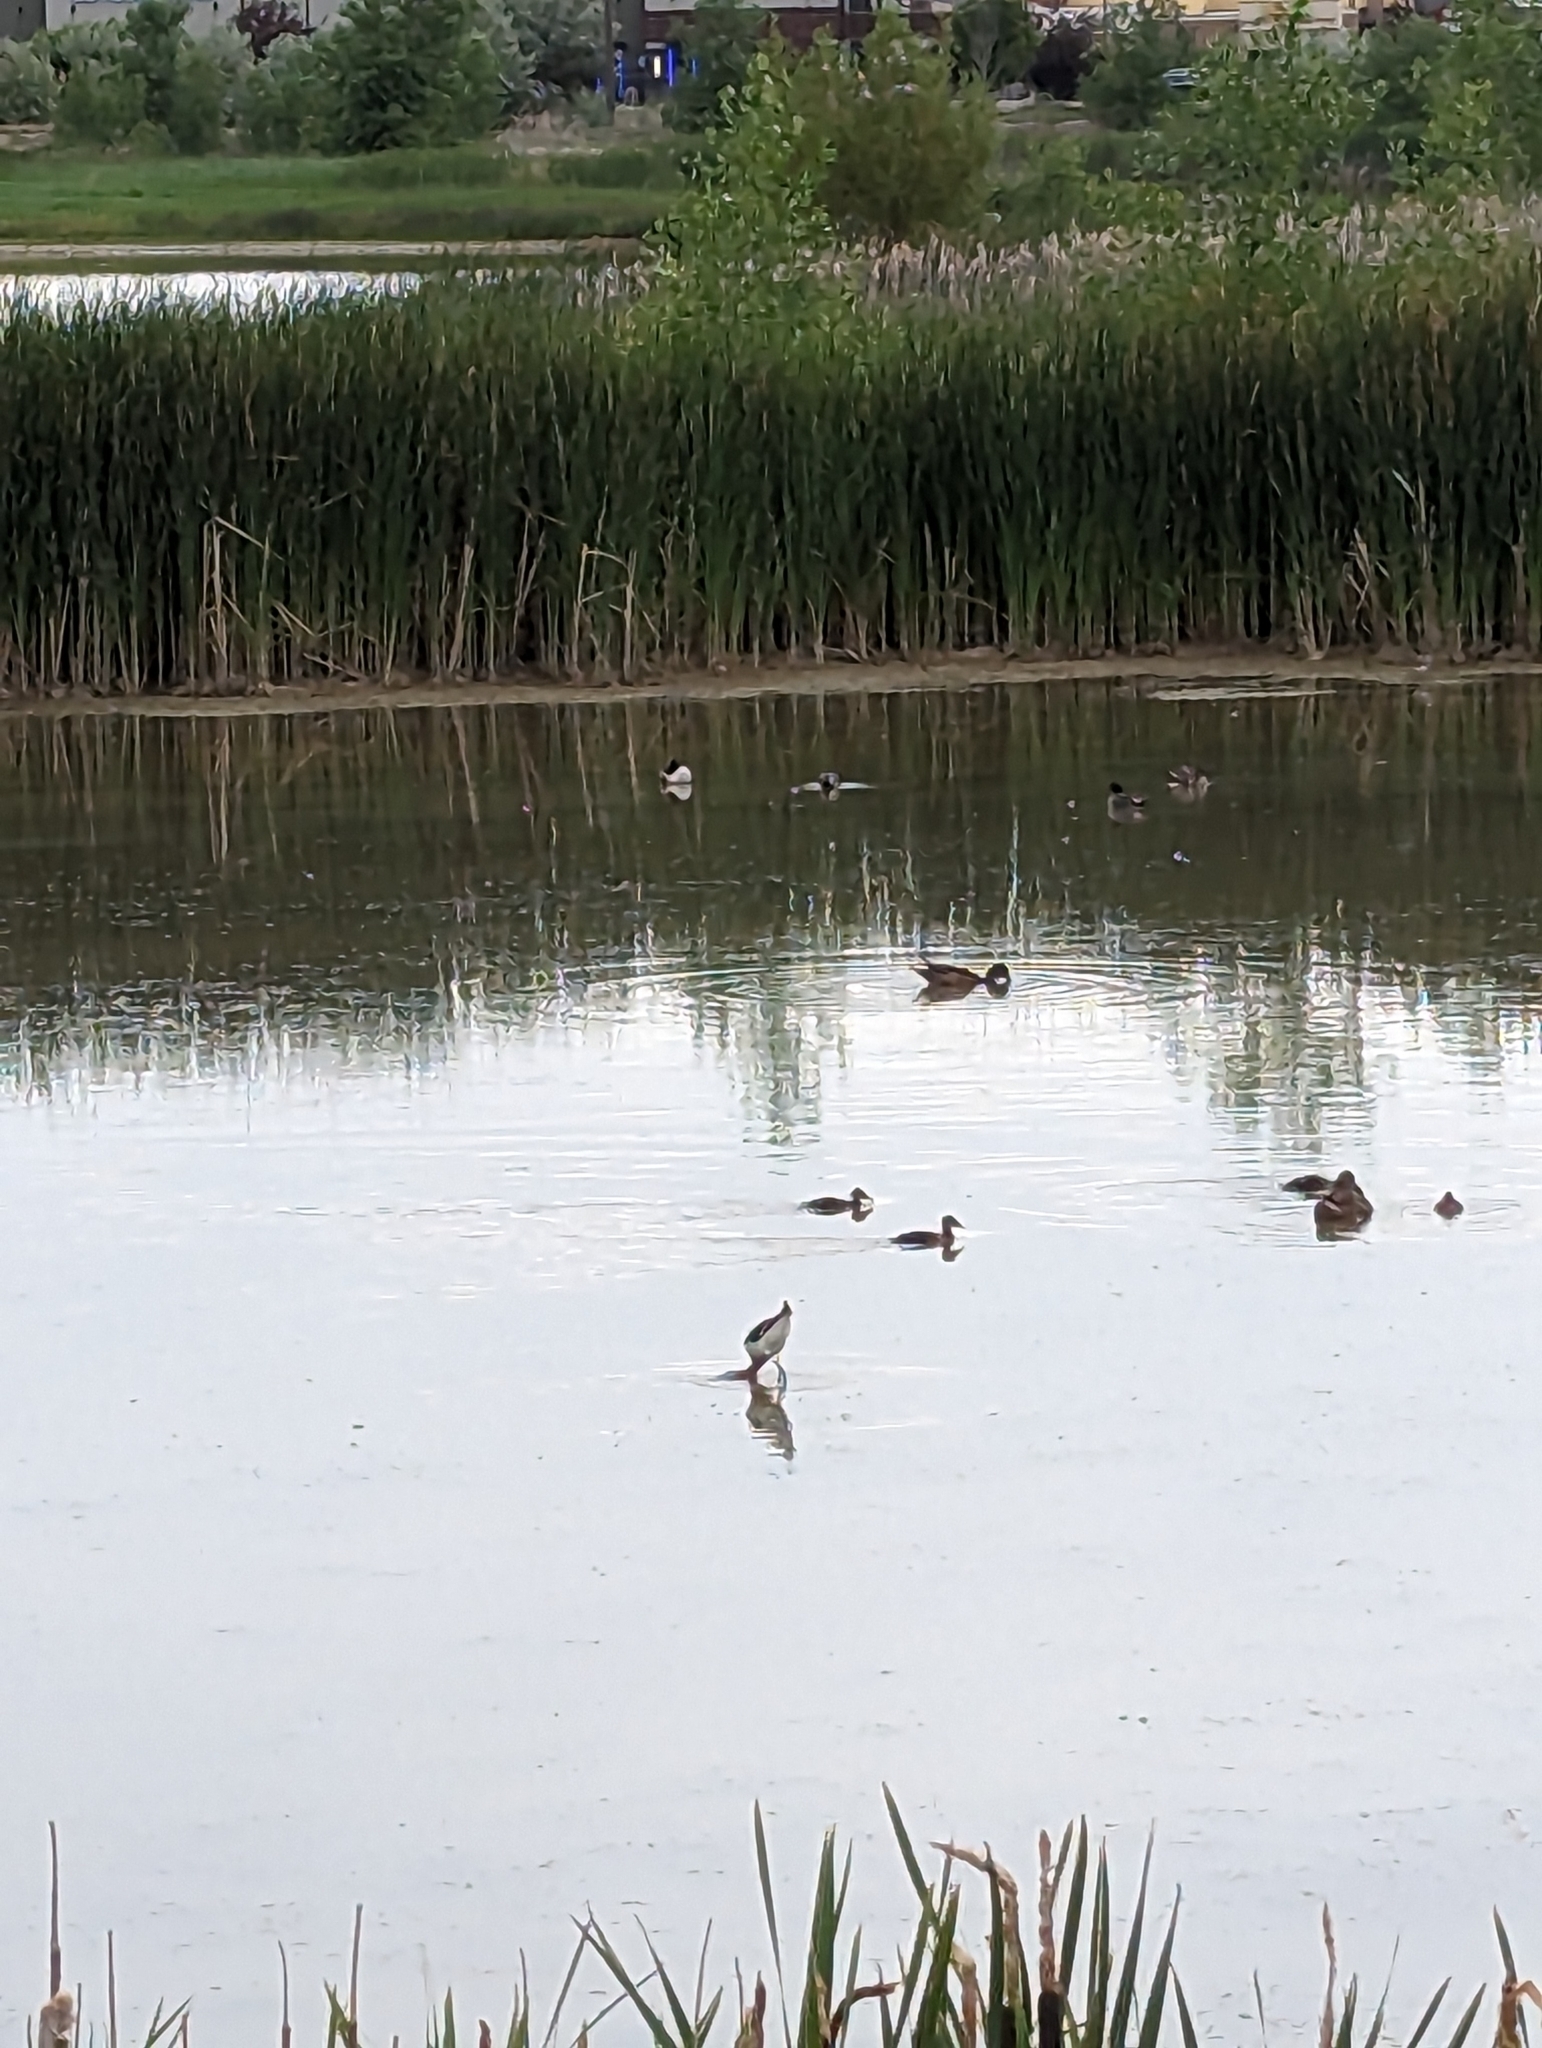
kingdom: Animalia
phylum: Chordata
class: Aves
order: Charadriiformes
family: Recurvirostridae
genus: Recurvirostra
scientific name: Recurvirostra americana
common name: American avocet
